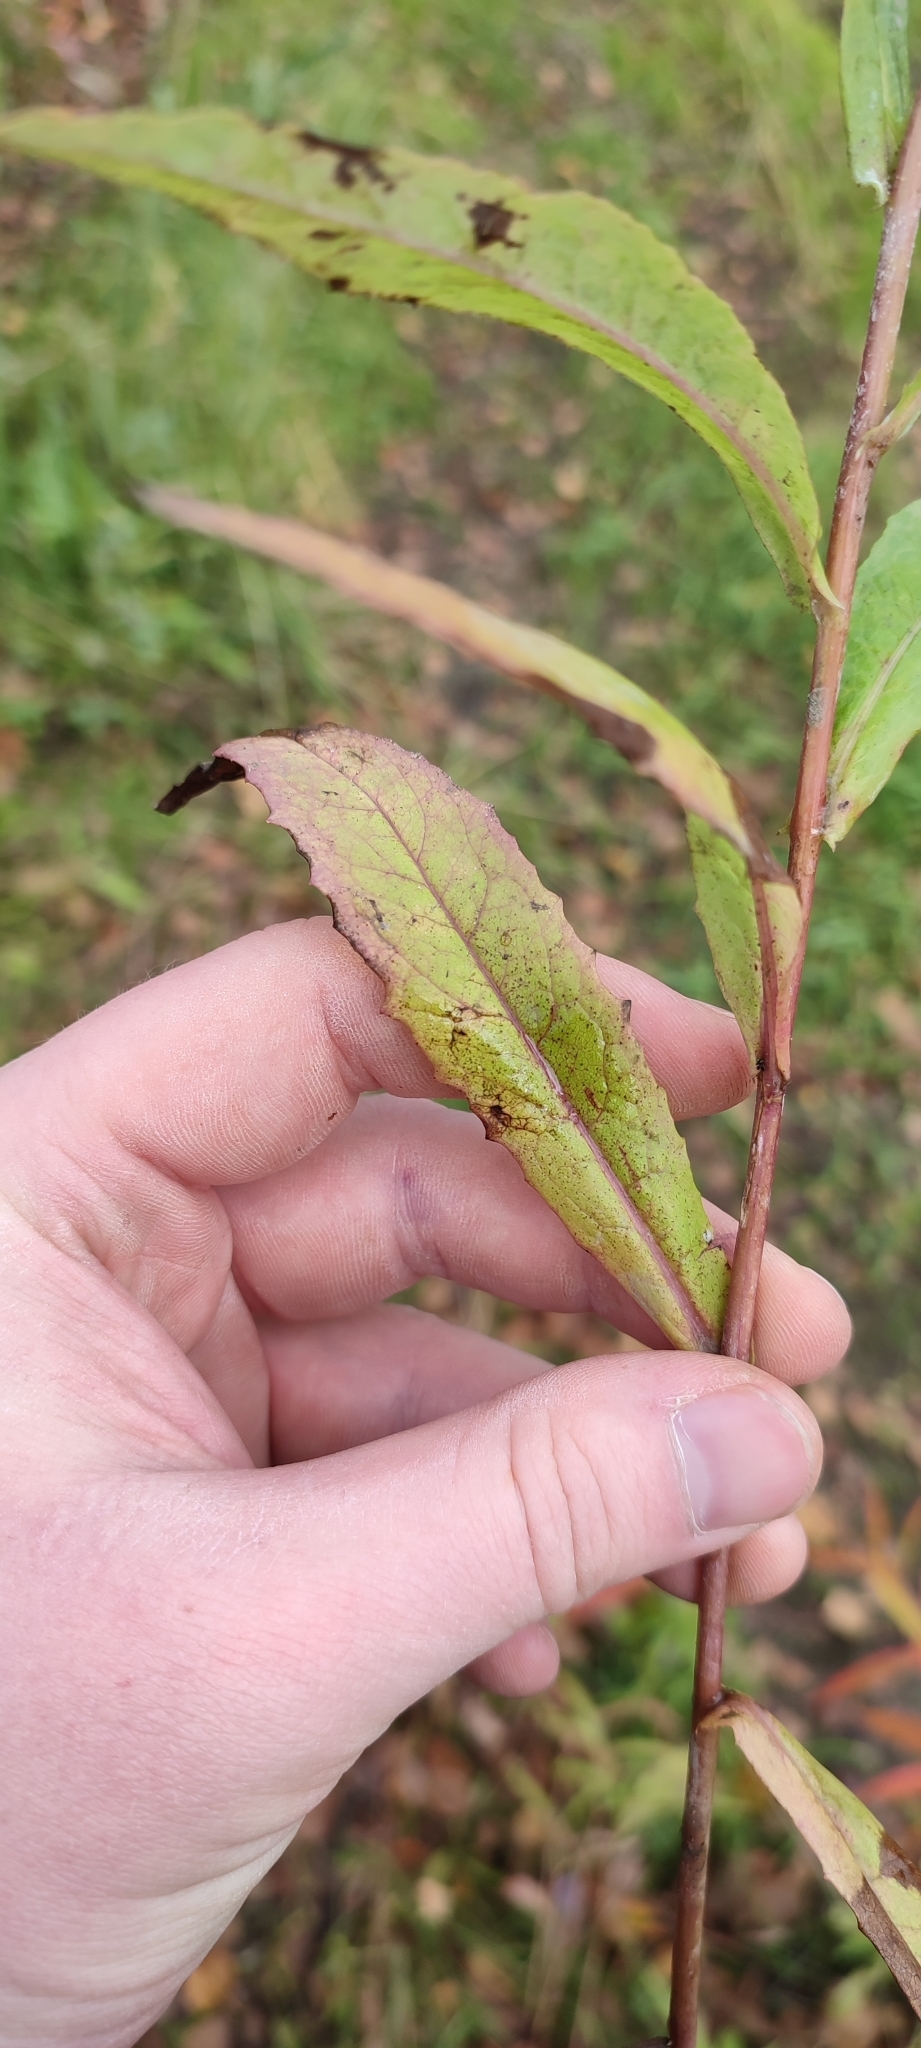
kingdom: Plantae
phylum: Tracheophyta
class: Magnoliopsida
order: Asterales
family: Asteraceae
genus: Lactuca
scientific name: Lactuca sibirica
